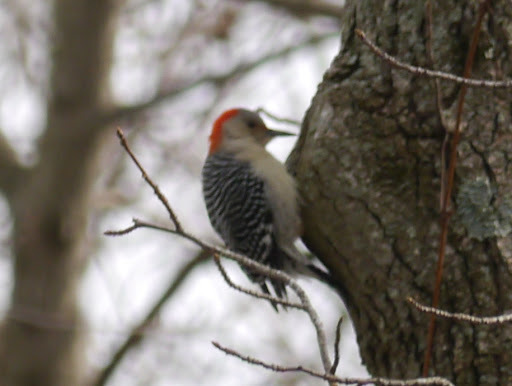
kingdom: Animalia
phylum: Chordata
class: Aves
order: Piciformes
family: Picidae
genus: Melanerpes
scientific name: Melanerpes carolinus
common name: Red-bellied woodpecker
